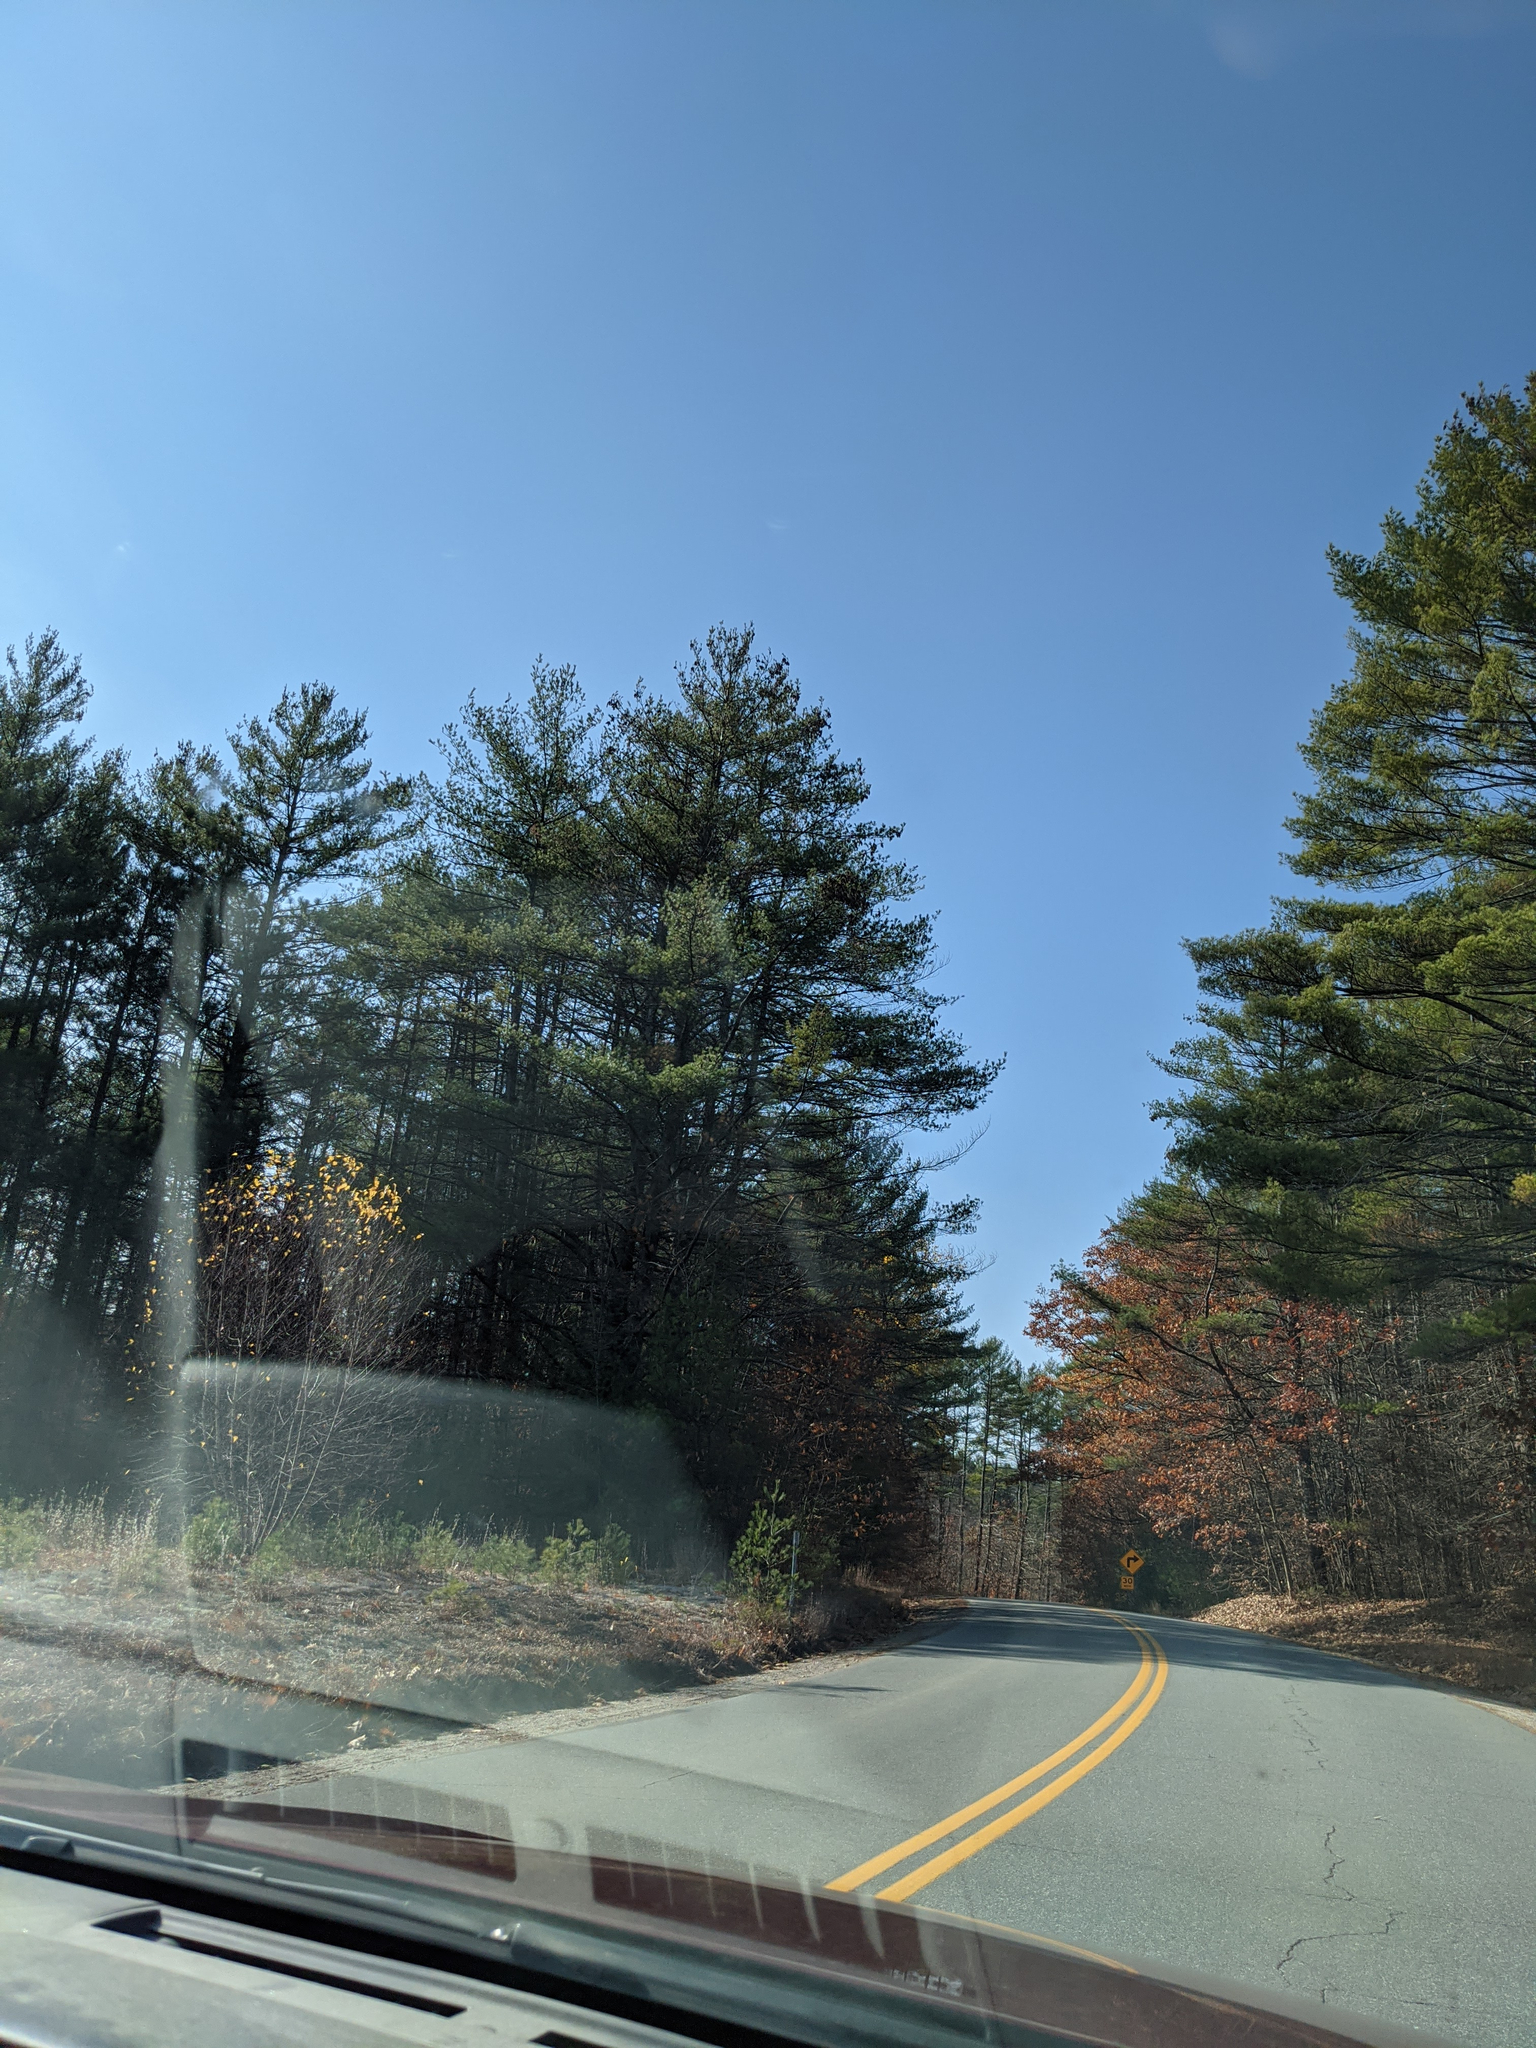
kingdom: Plantae
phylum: Tracheophyta
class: Pinopsida
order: Pinales
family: Pinaceae
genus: Pinus
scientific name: Pinus strobus
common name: Weymouth pine
